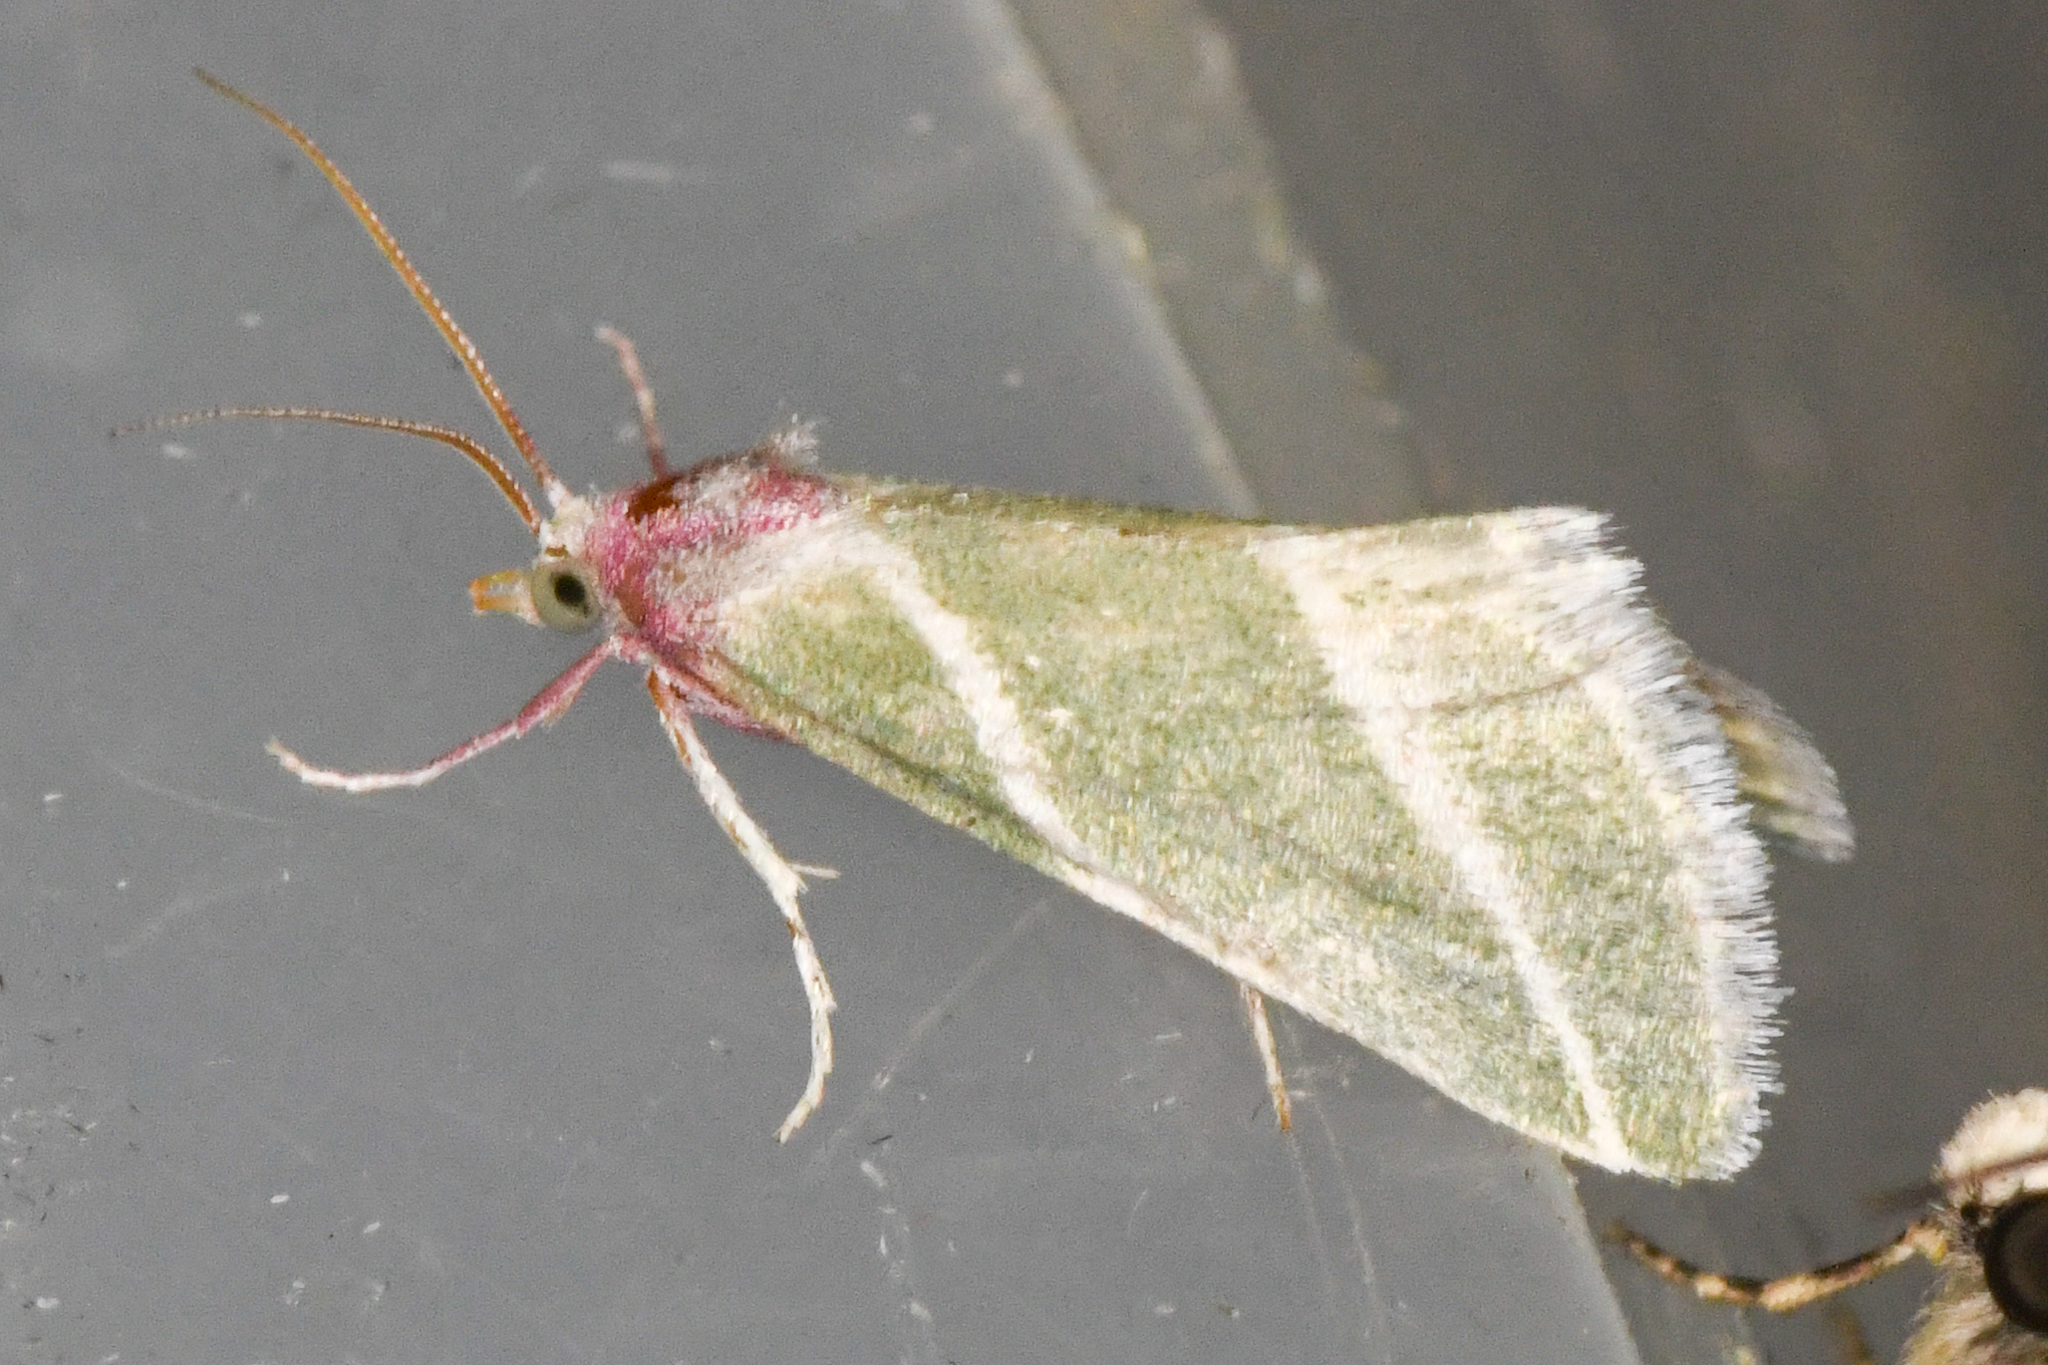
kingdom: Animalia
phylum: Arthropoda
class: Insecta
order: Lepidoptera
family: Pyralidae
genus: Anemosella
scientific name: Anemosella
